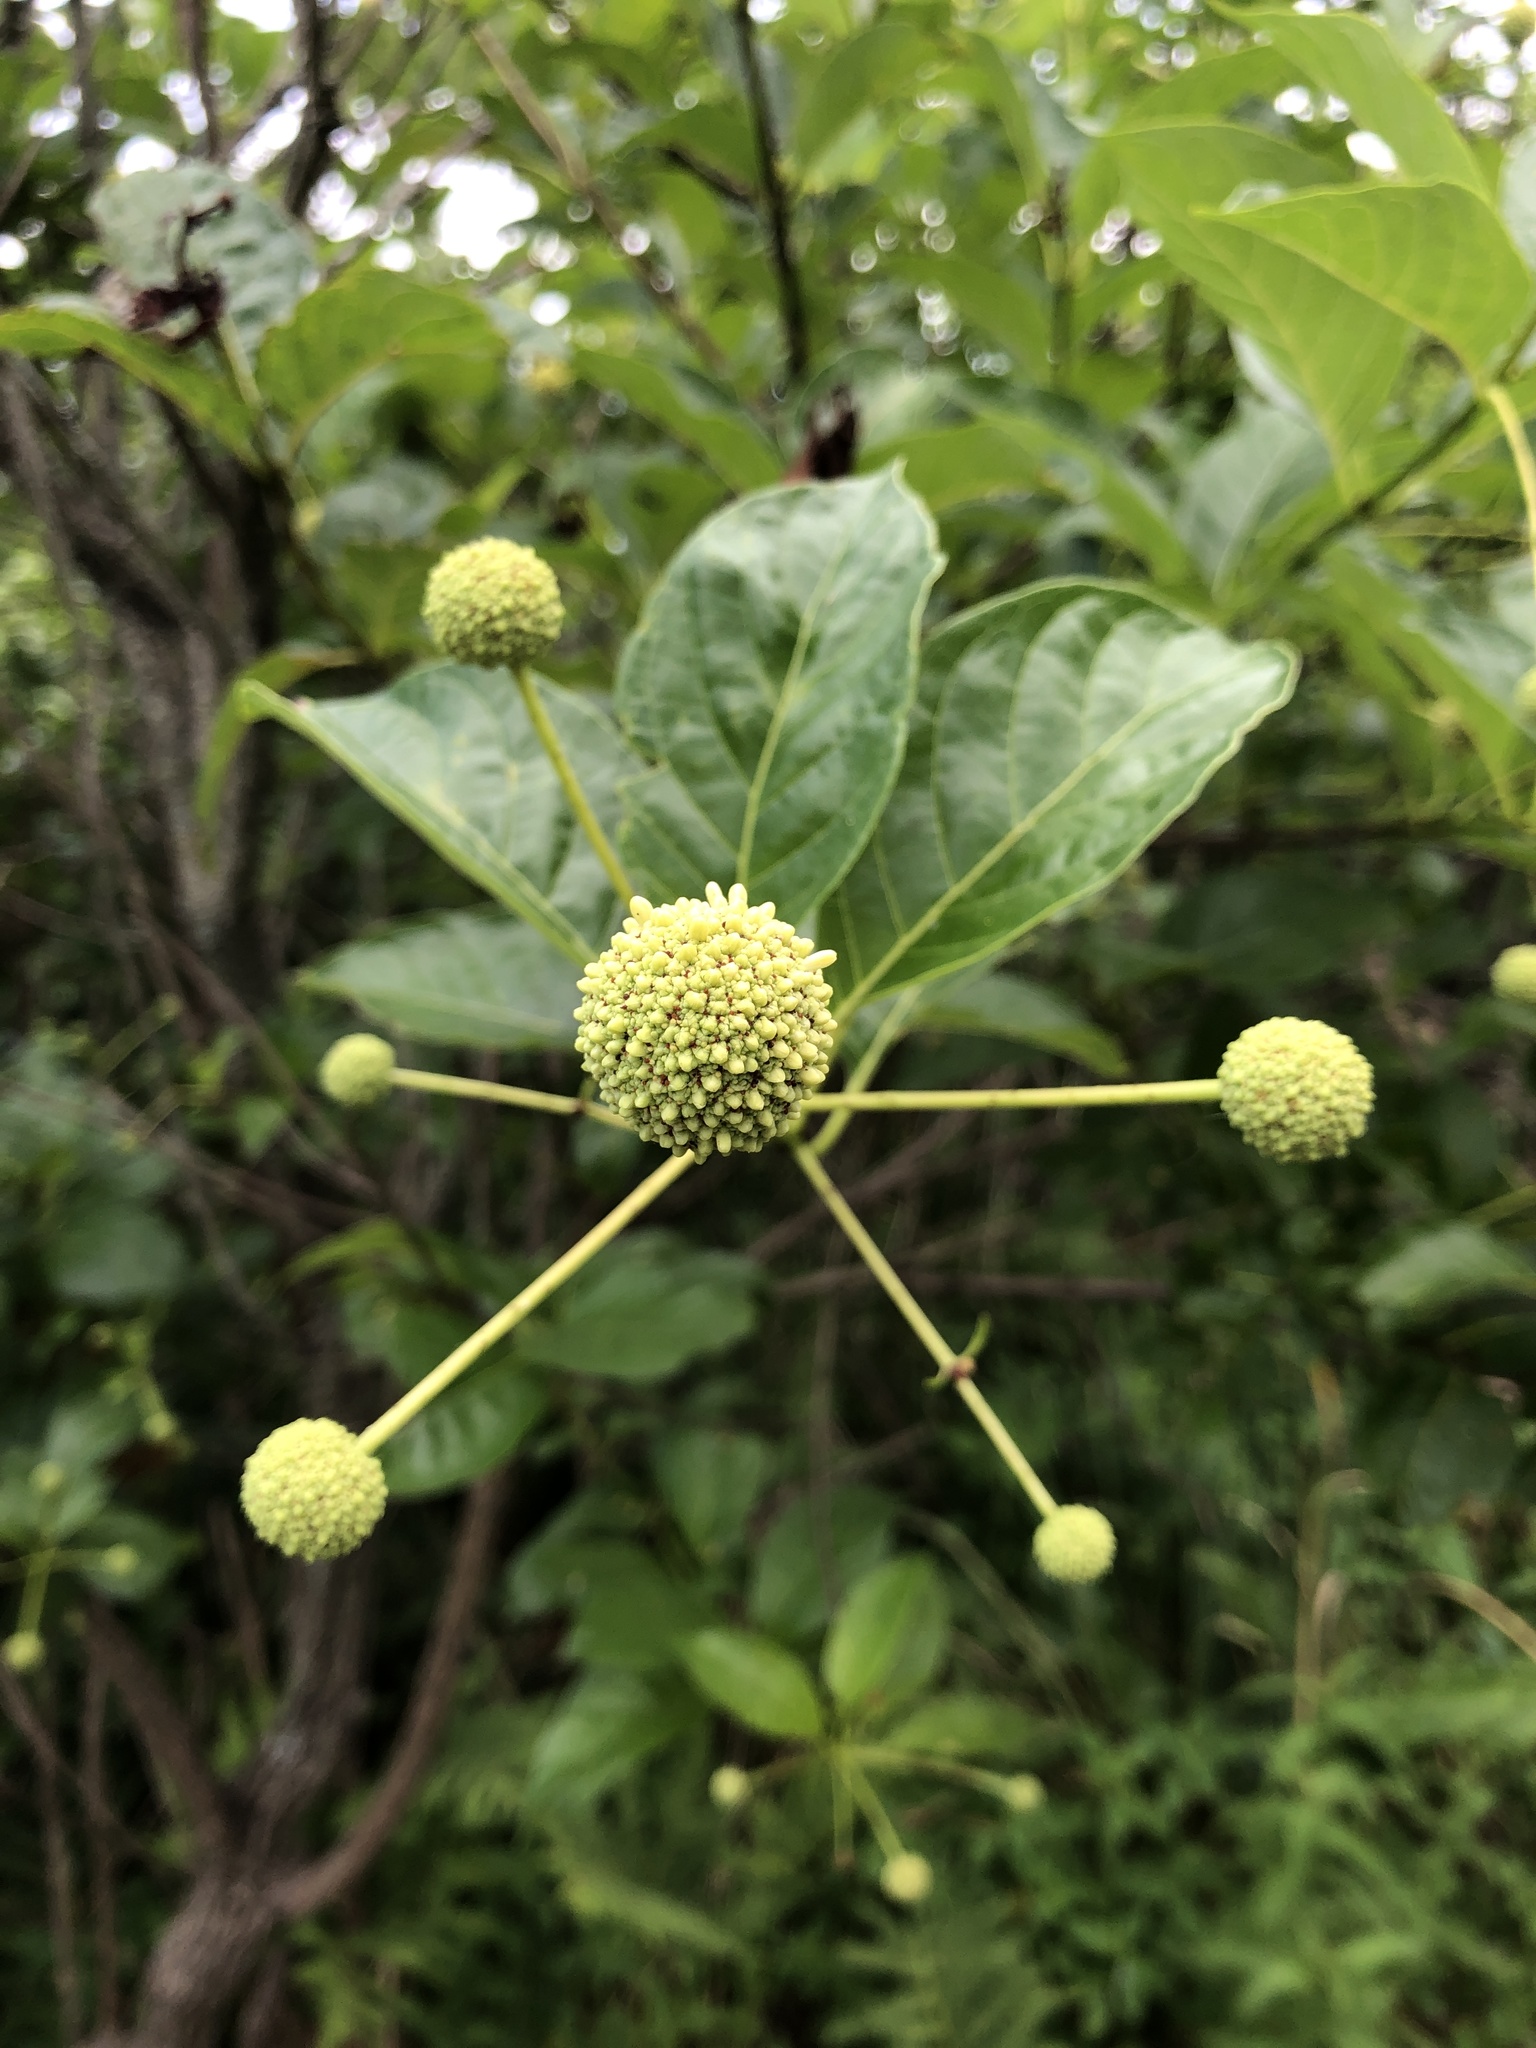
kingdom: Plantae
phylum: Tracheophyta
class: Magnoliopsida
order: Gentianales
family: Rubiaceae
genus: Cephalanthus
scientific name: Cephalanthus occidentalis
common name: Button-willow
